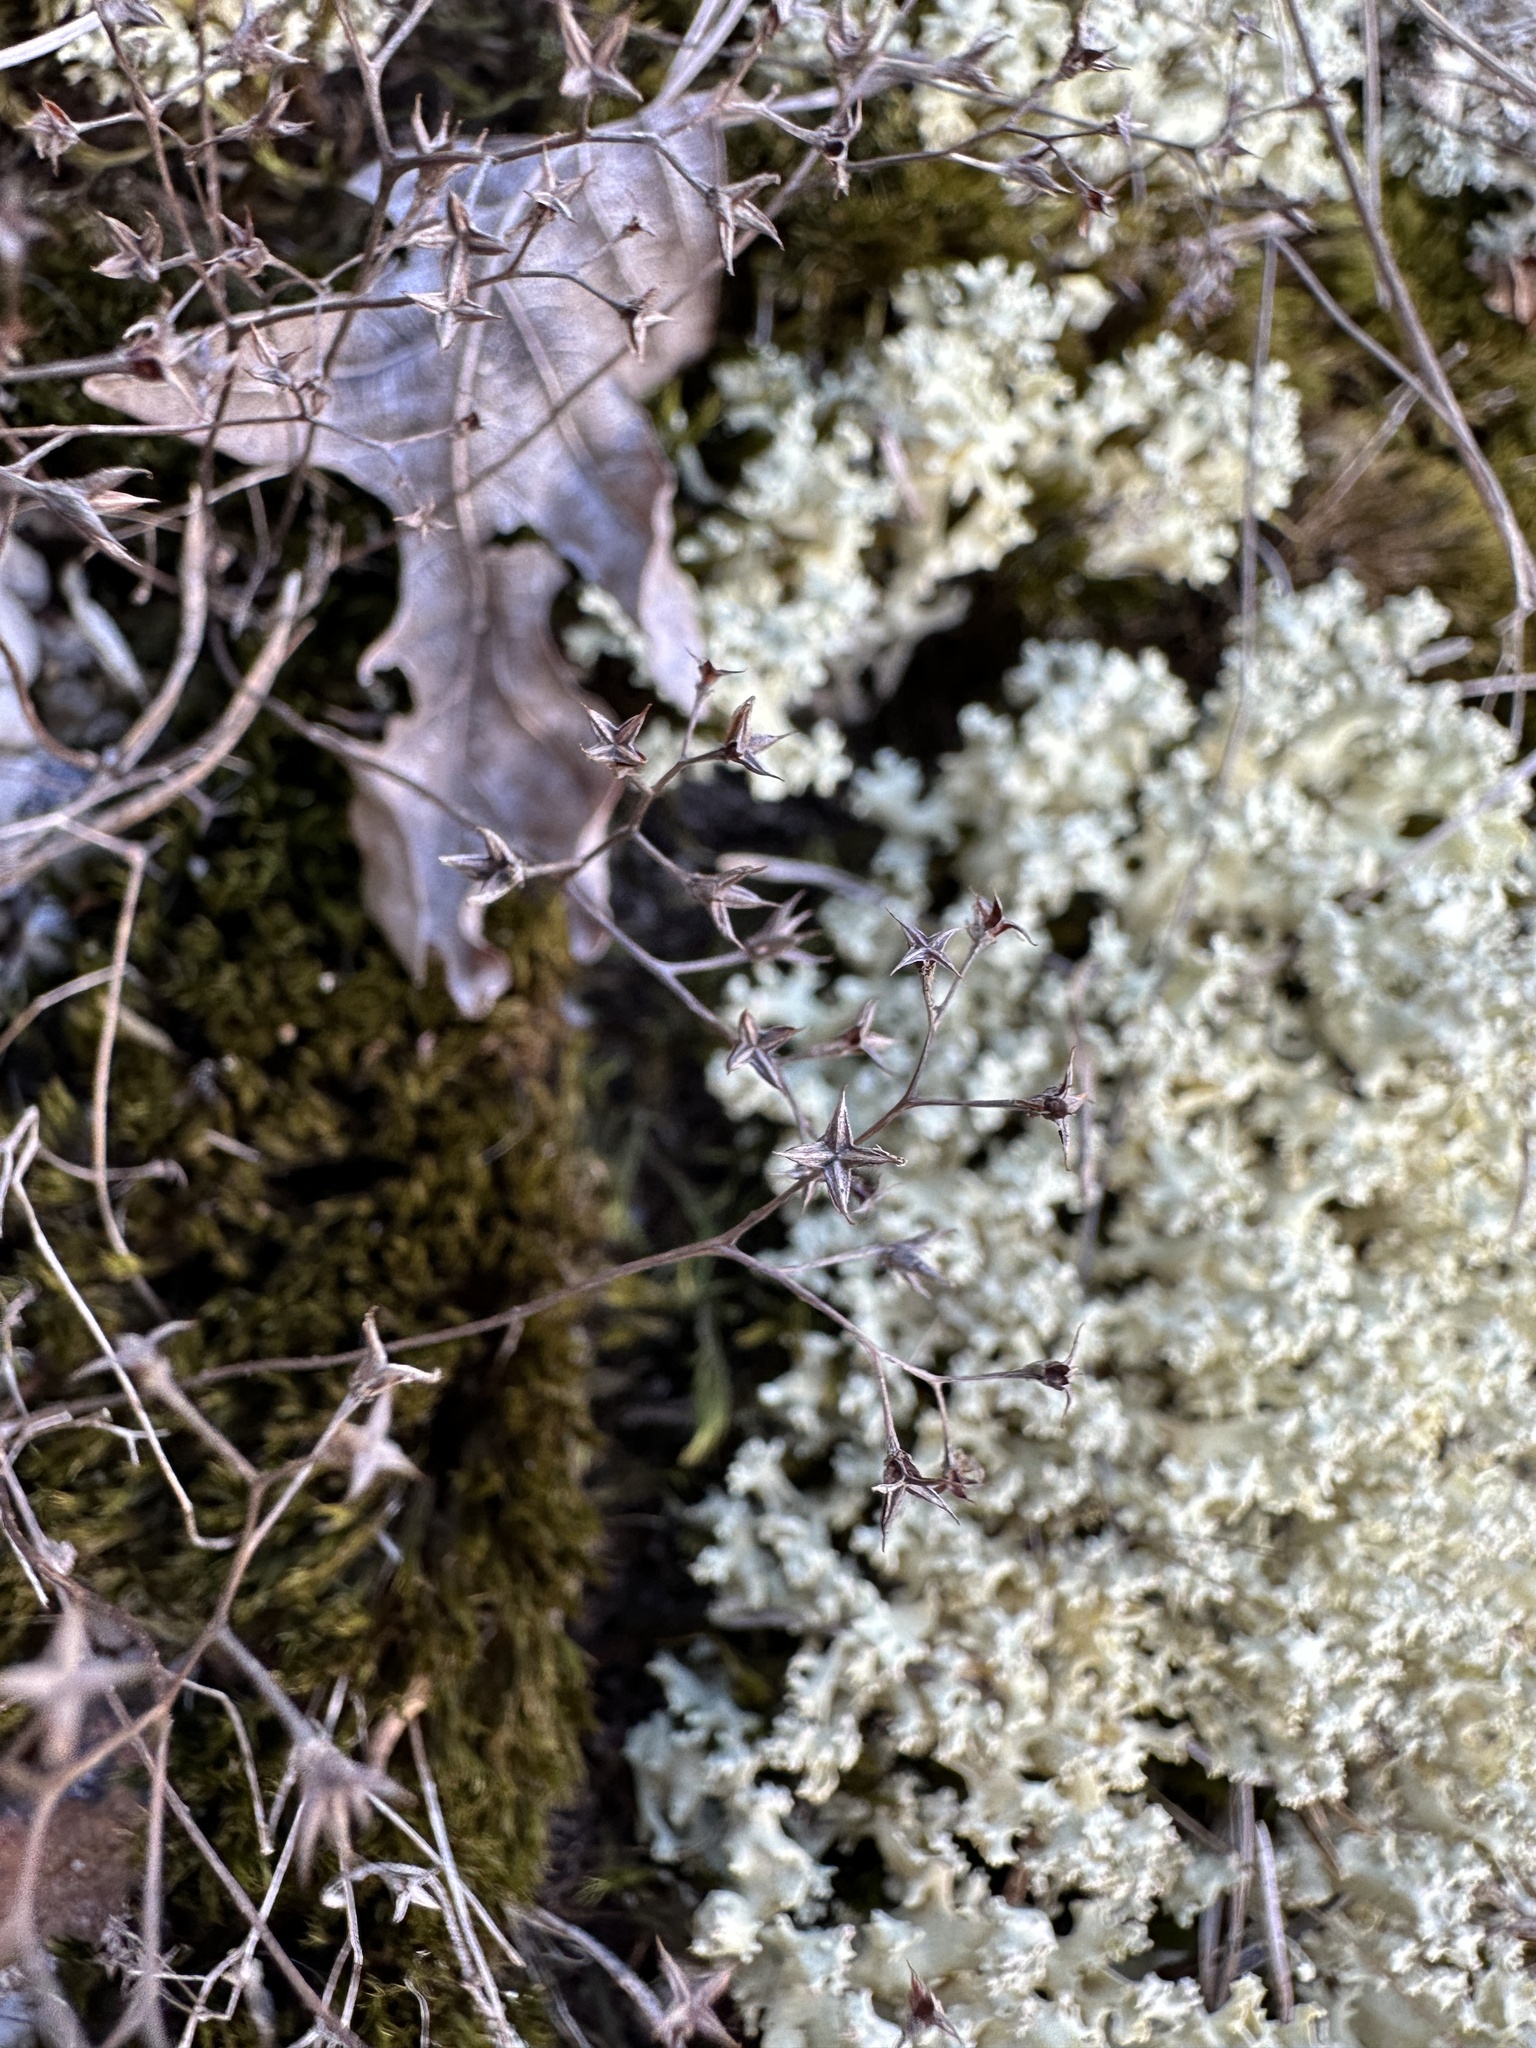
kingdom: Plantae
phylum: Tracheophyta
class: Magnoliopsida
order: Saxifragales
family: Crassulaceae
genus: Sedum
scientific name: Sedum smallii
